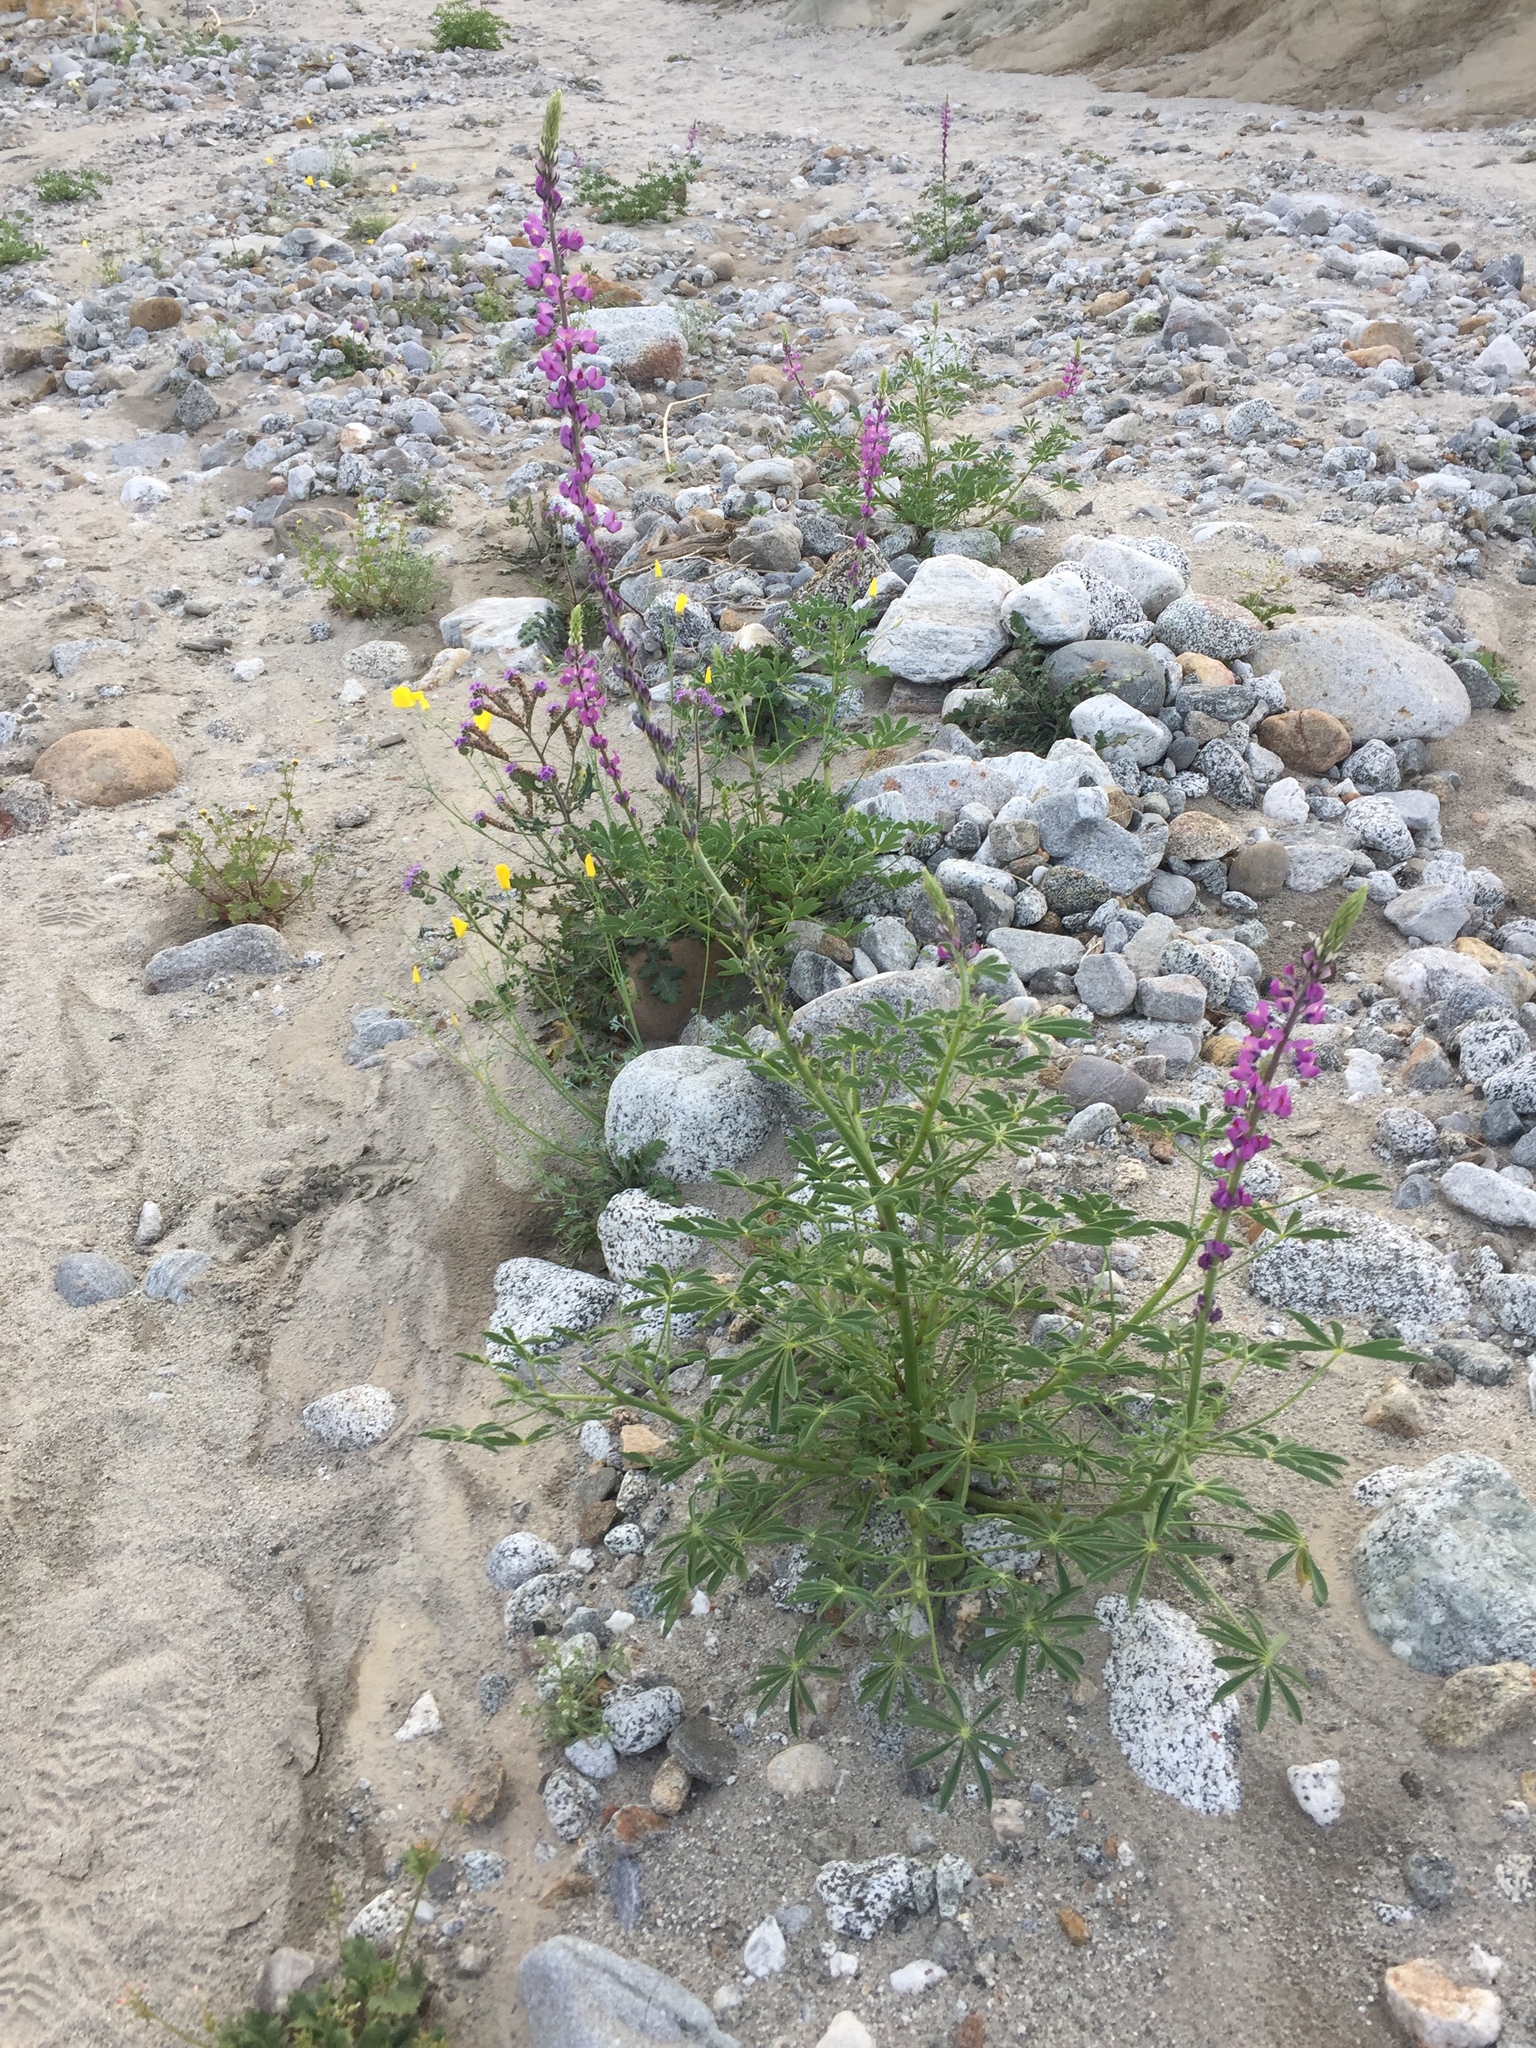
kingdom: Plantae
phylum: Tracheophyta
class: Magnoliopsida
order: Fabales
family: Fabaceae
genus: Lupinus
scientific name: Lupinus arizonicus
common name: Arizona lupine
